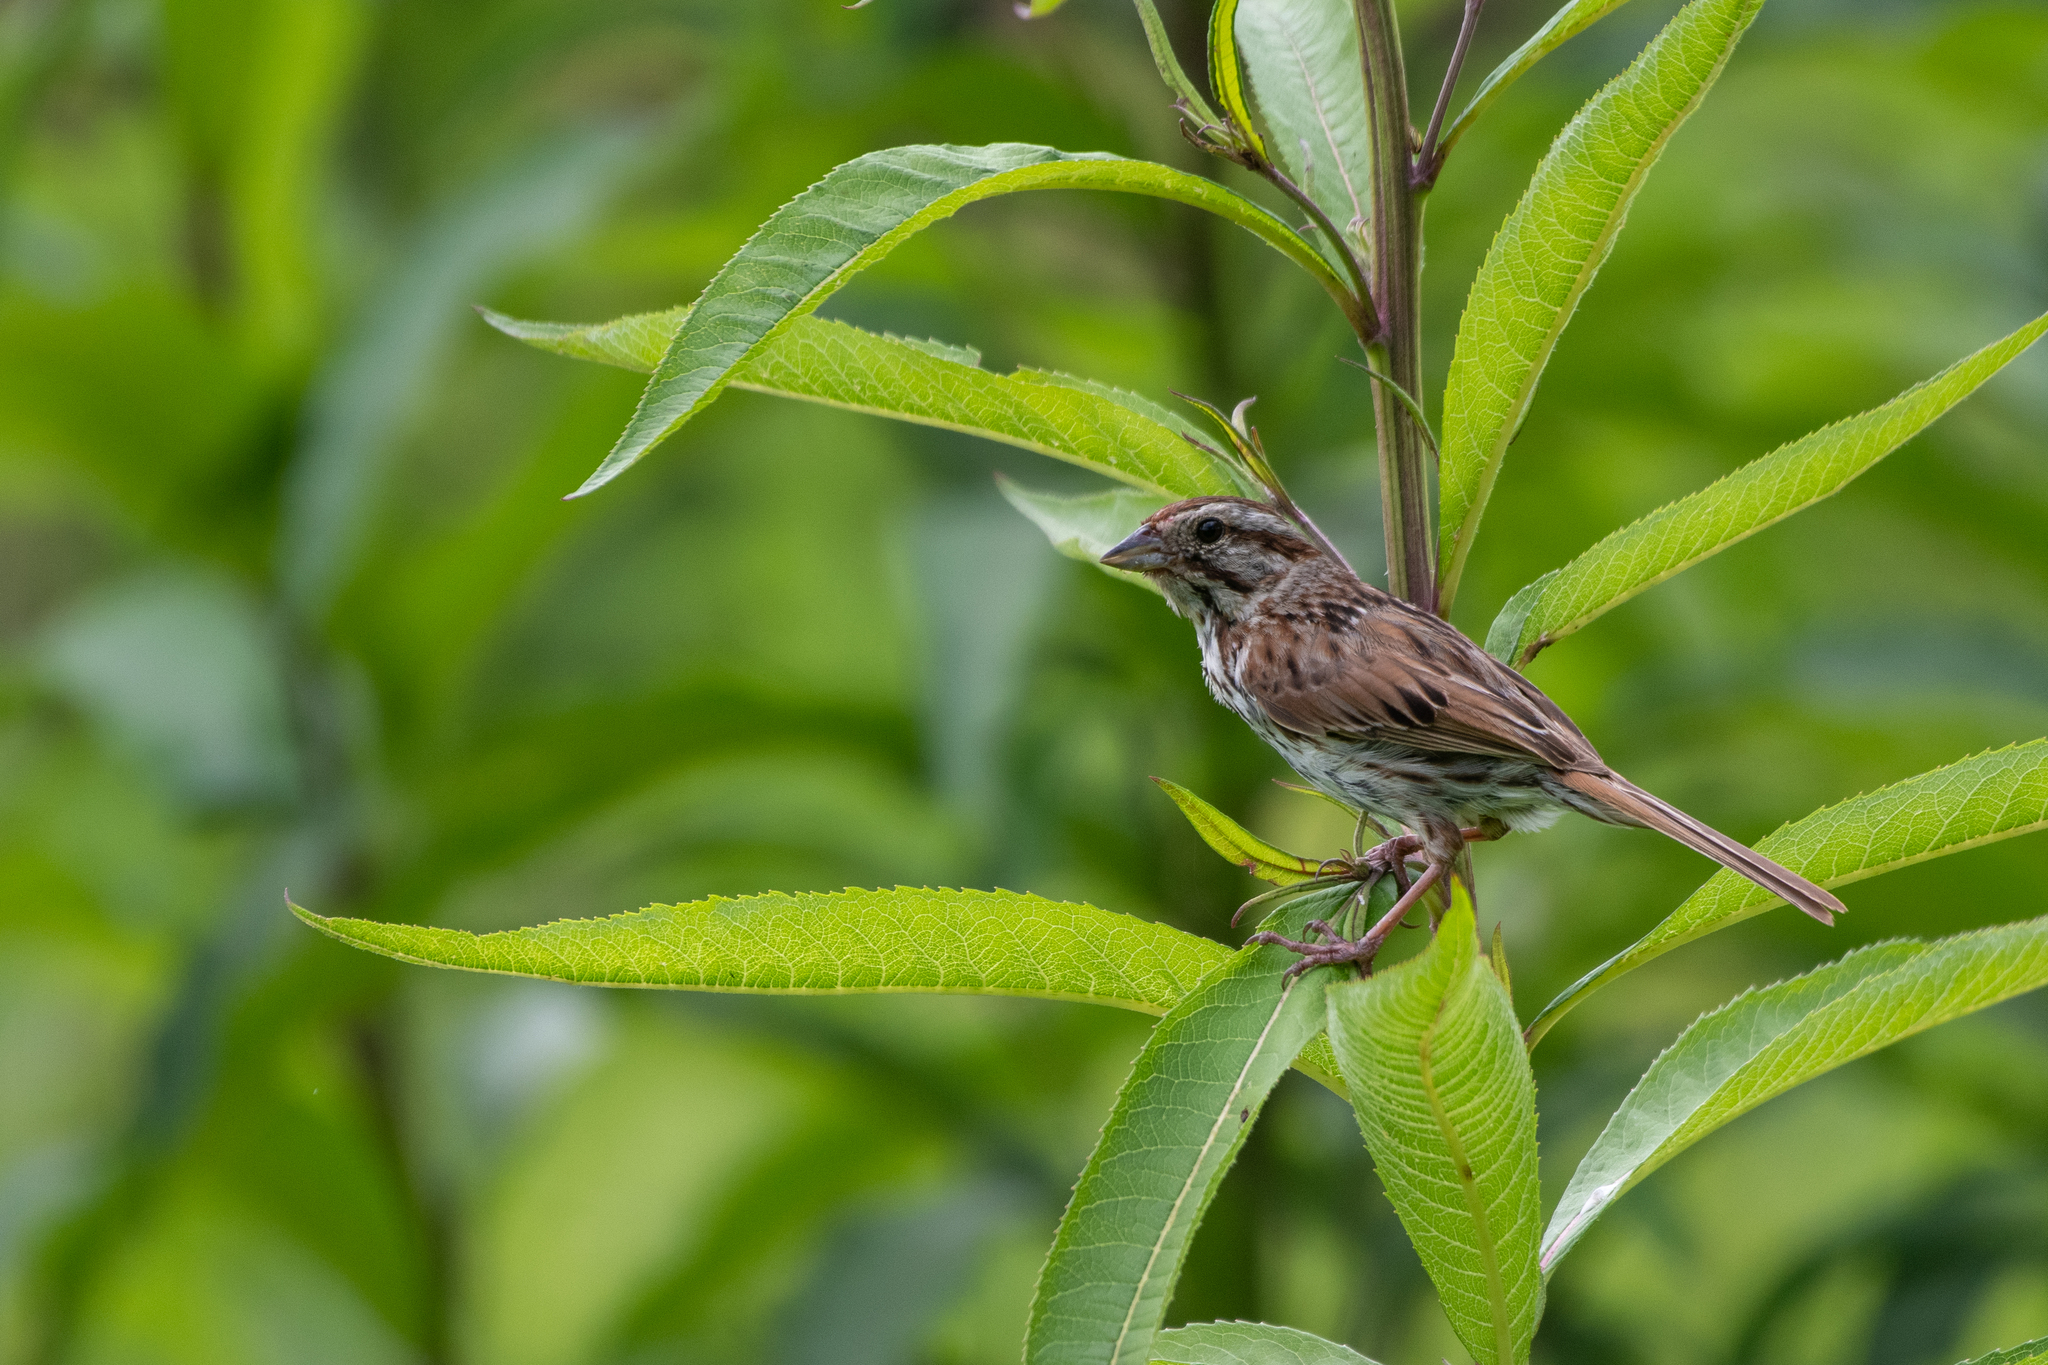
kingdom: Animalia
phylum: Chordata
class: Aves
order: Passeriformes
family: Passerellidae
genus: Melospiza
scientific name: Melospiza melodia
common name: Song sparrow
